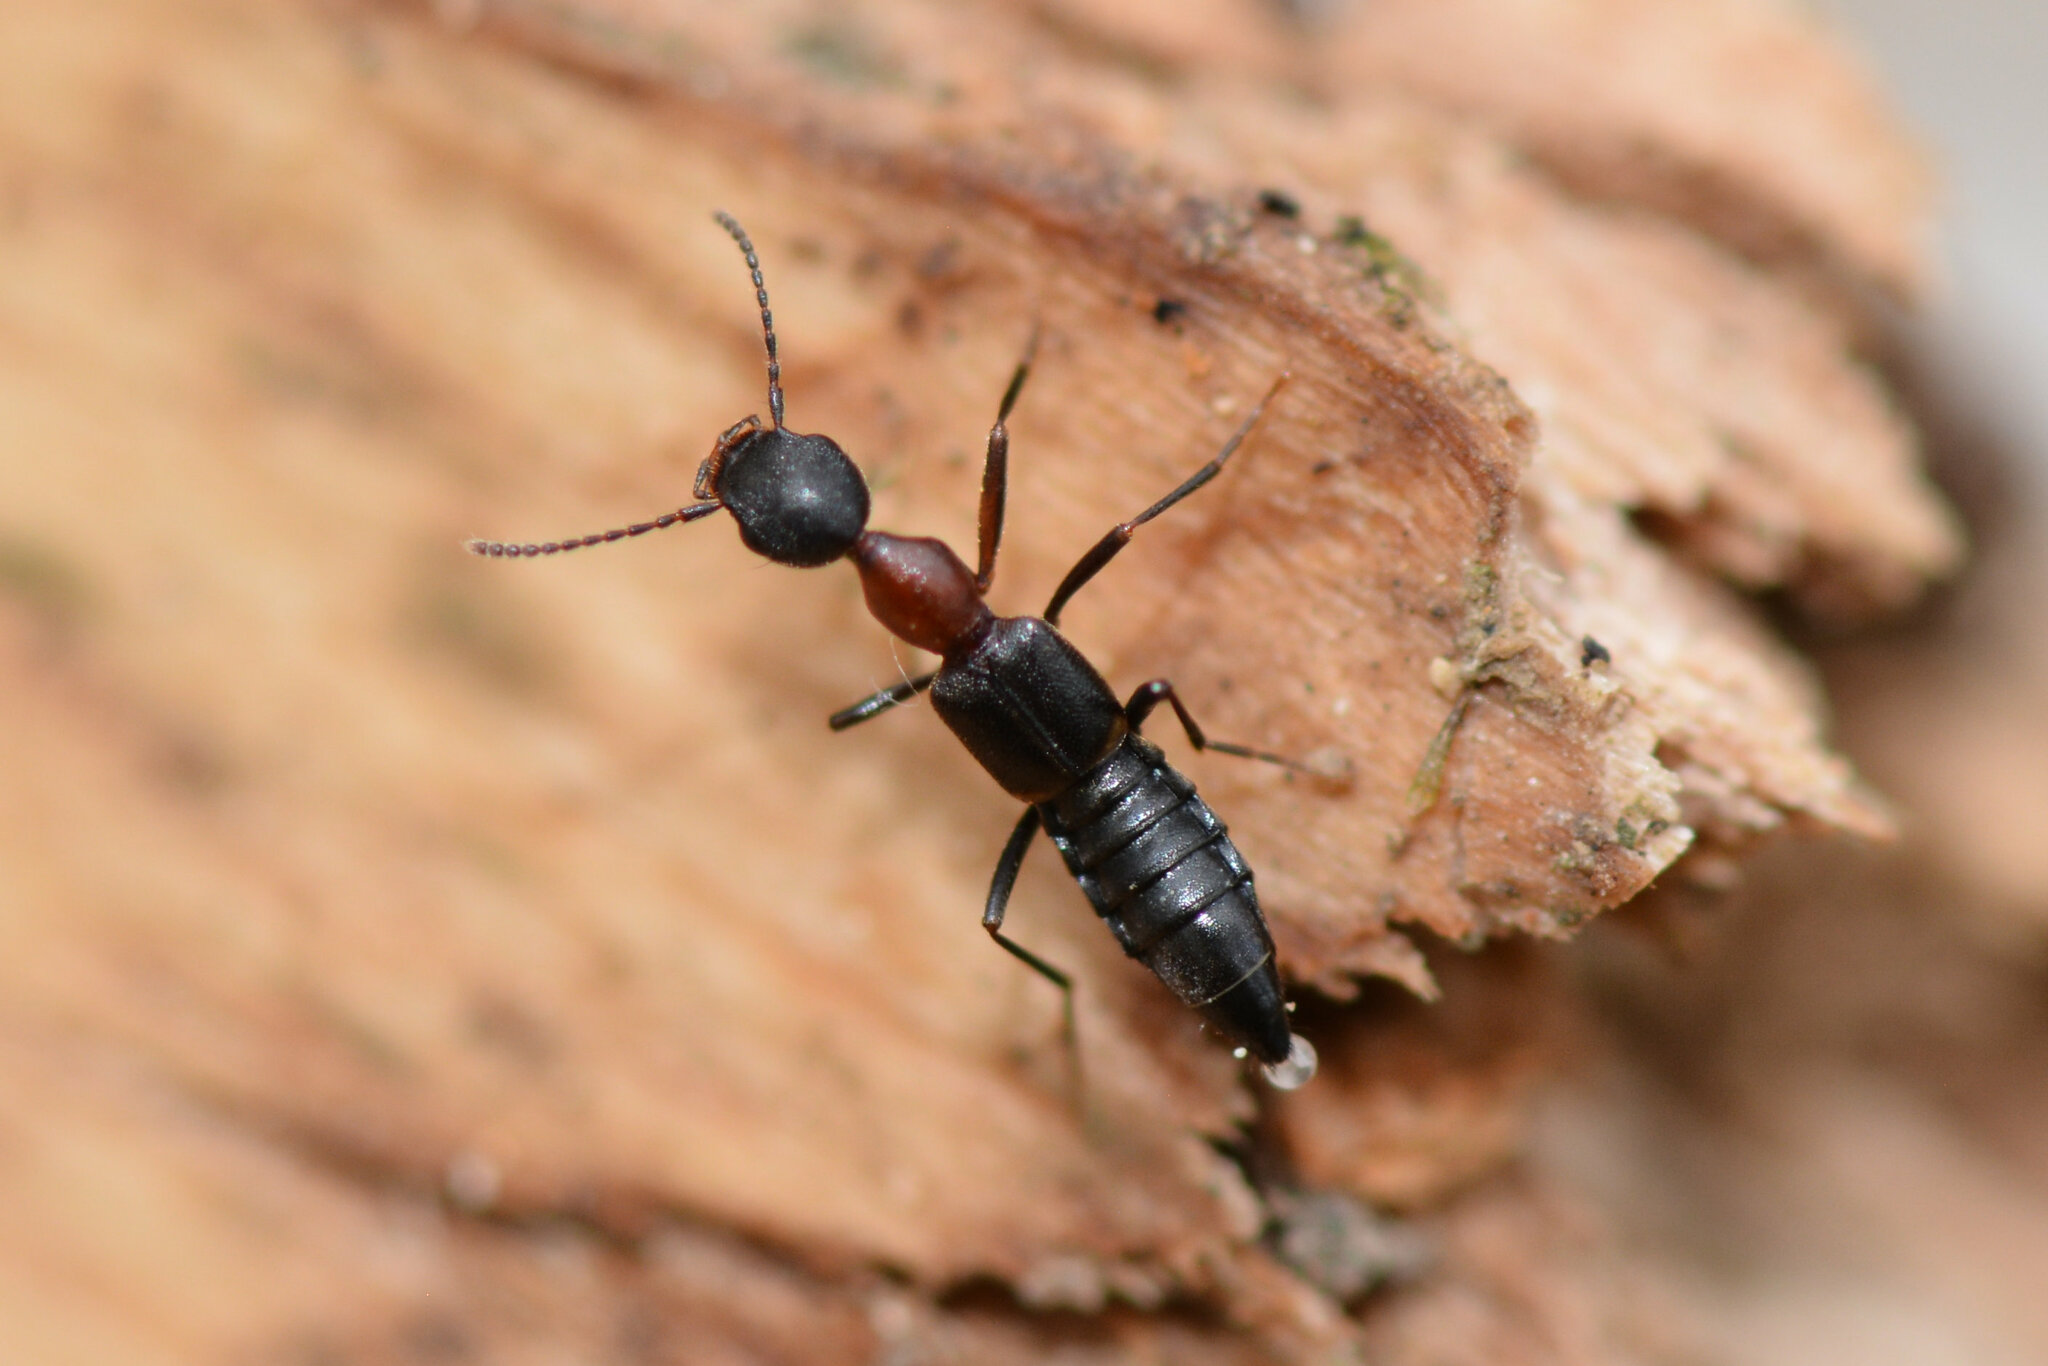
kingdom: Animalia
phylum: Arthropoda
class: Insecta
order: Coleoptera
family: Staphylinidae
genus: Rugilus
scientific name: Rugilus angustatus
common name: Staph beetle
